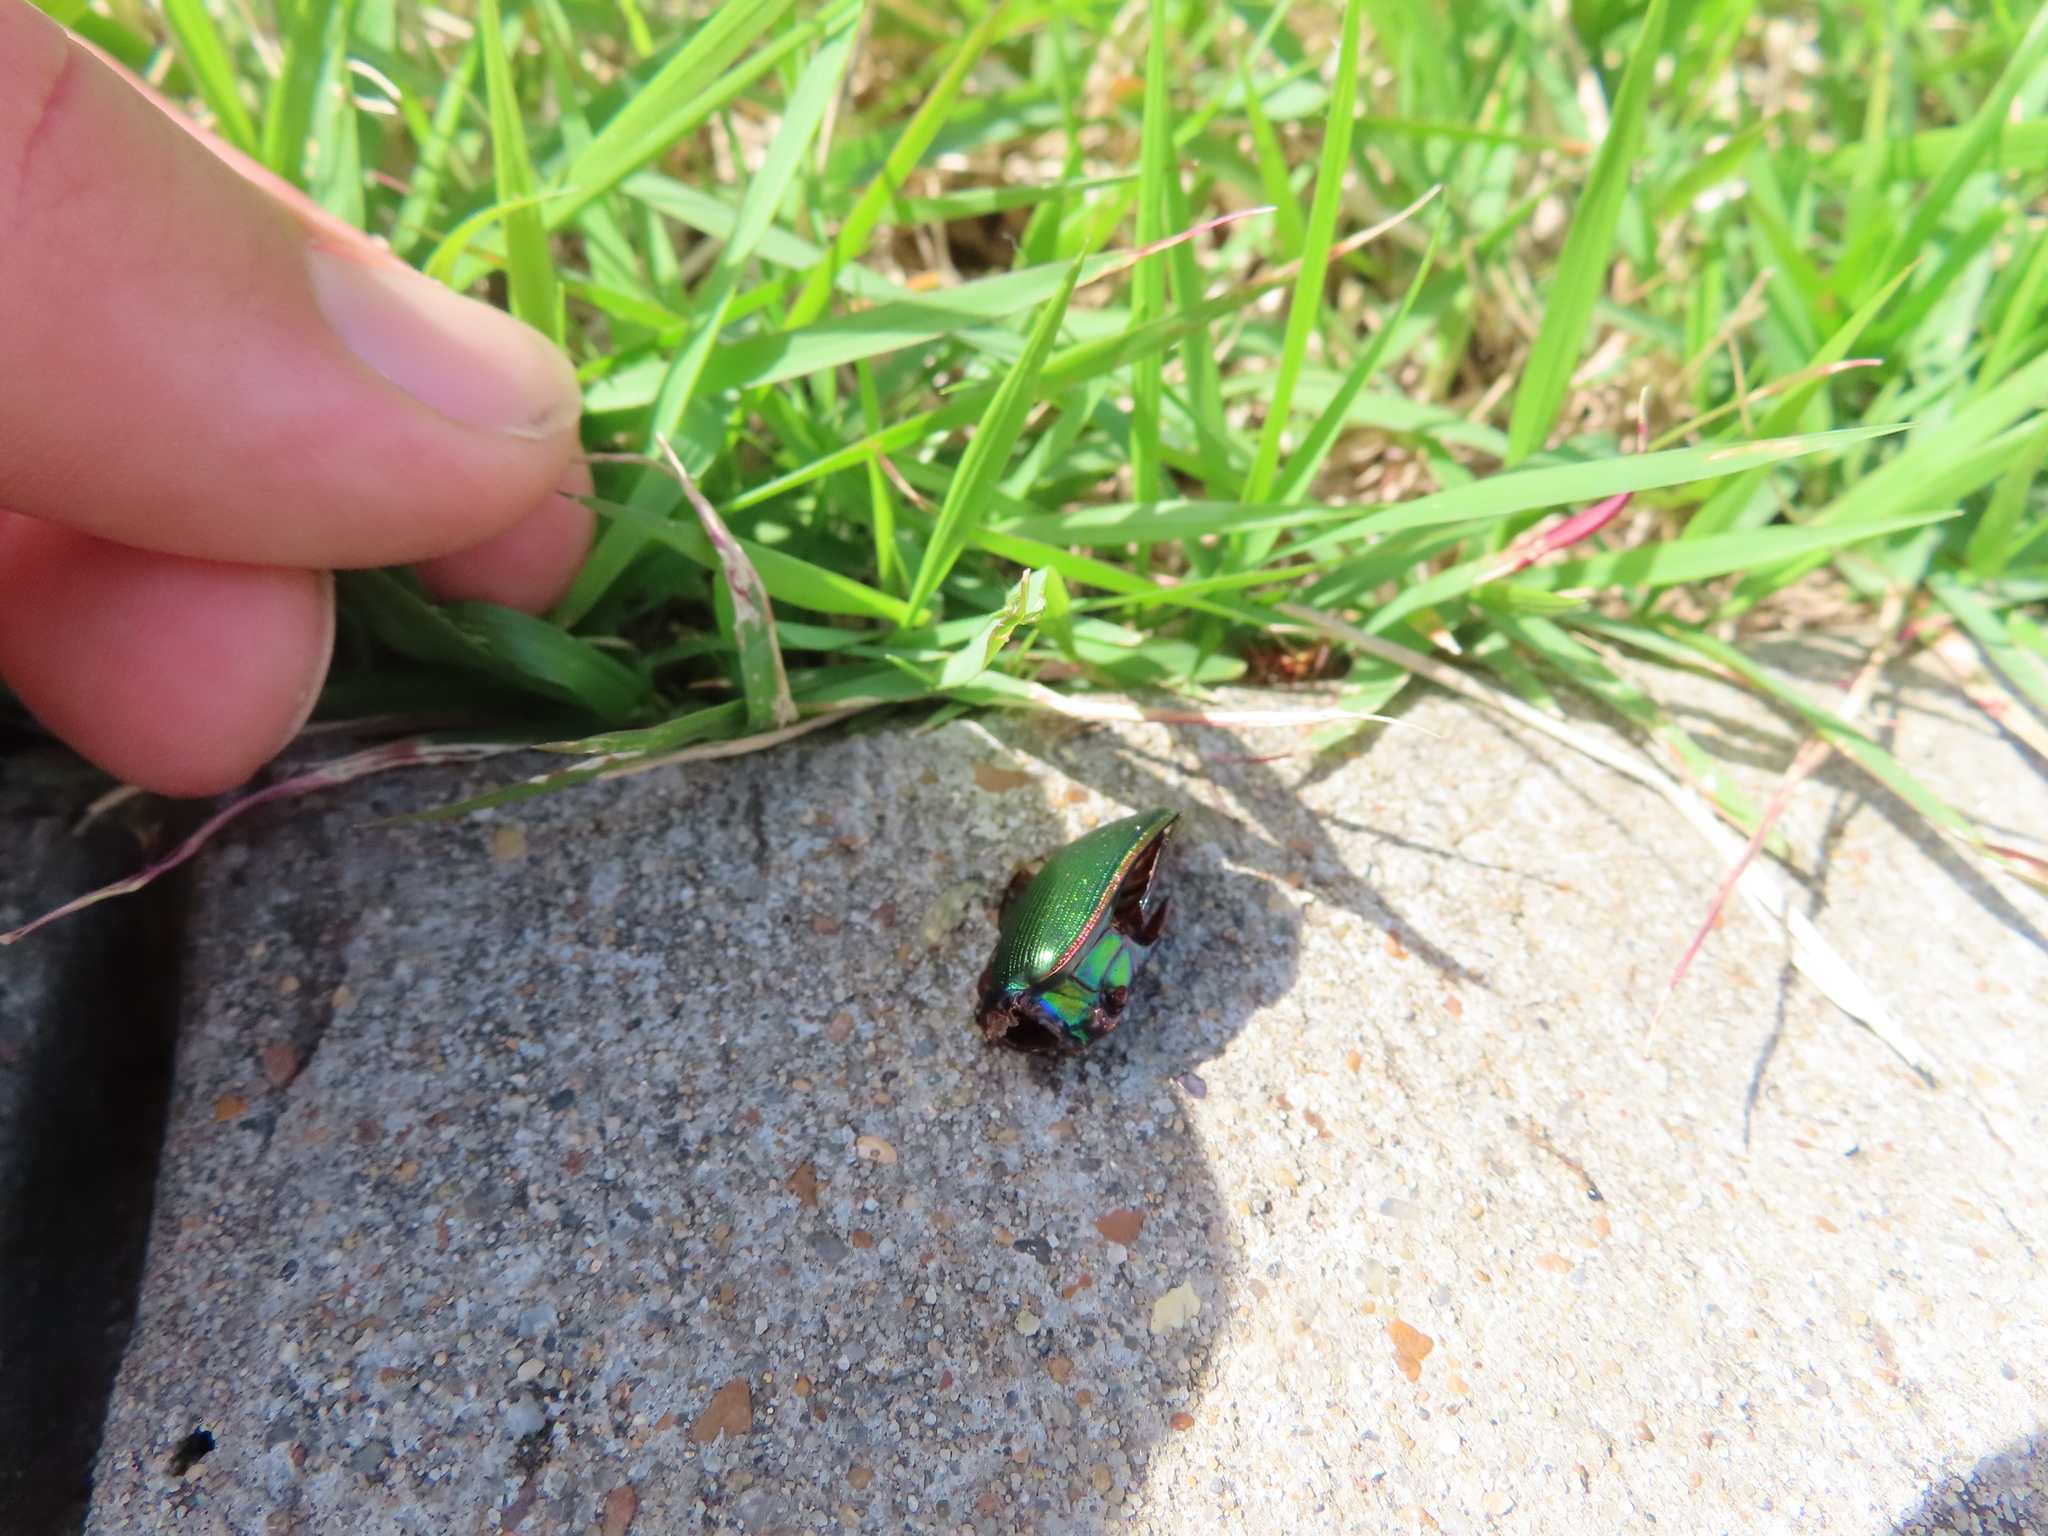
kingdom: Animalia
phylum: Arthropoda
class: Insecta
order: Coleoptera
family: Carabidae
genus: Calosoma
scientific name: Calosoma scrutator
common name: Fiery searcher beetle
